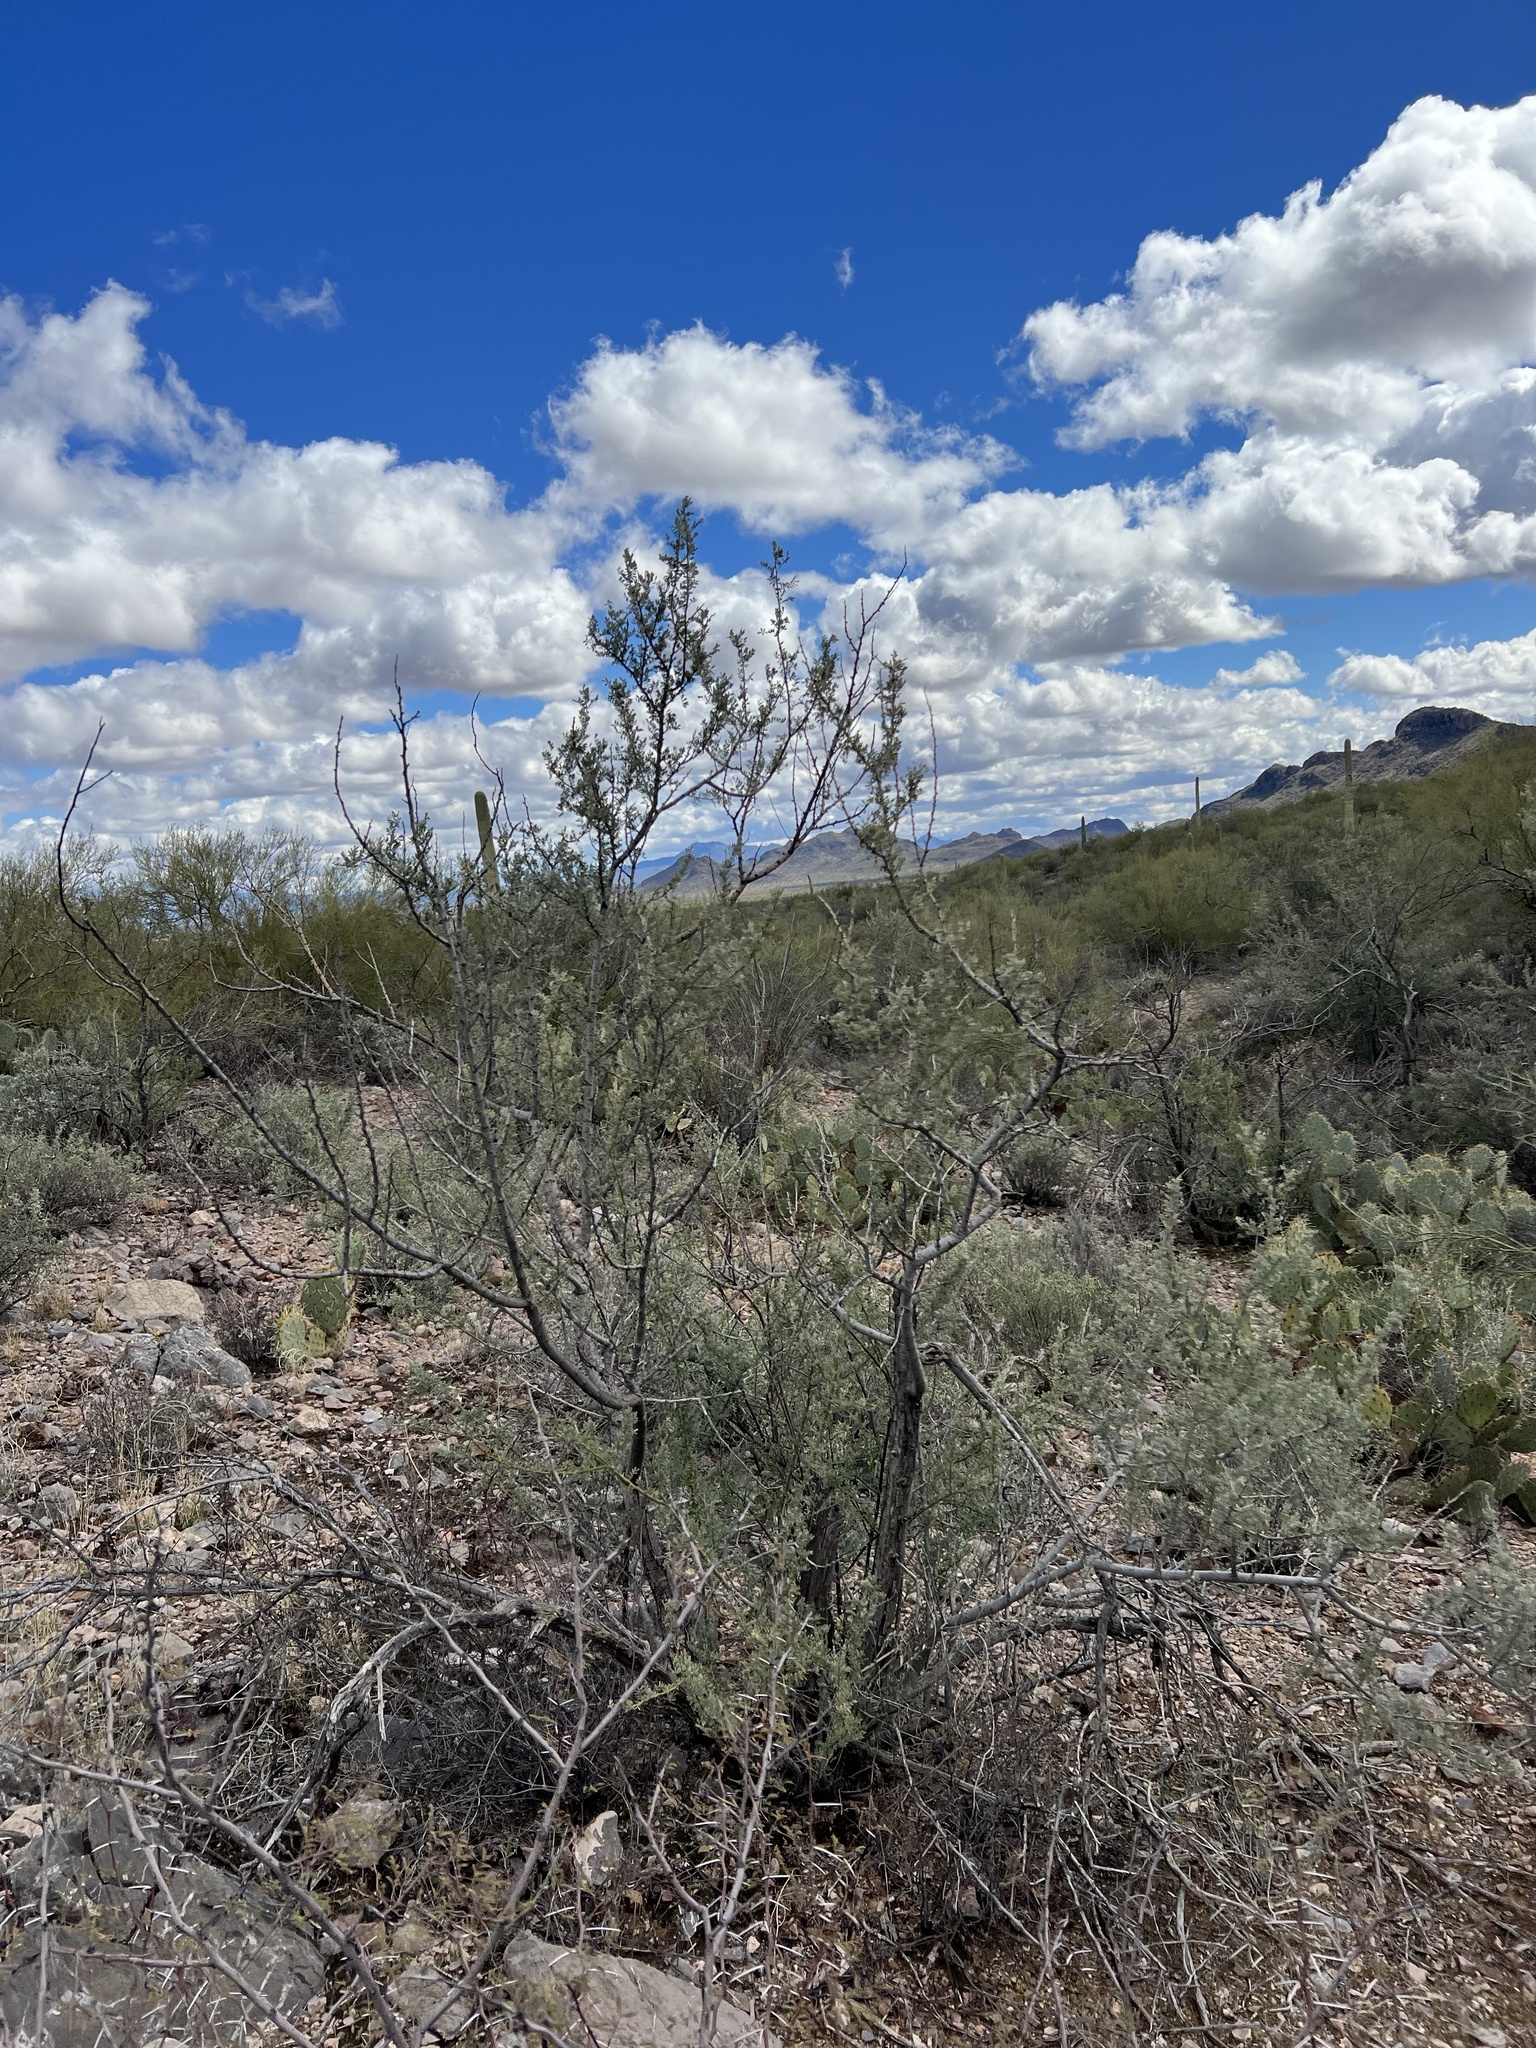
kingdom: Plantae
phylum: Tracheophyta
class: Magnoliopsida
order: Fabales
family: Fabaceae
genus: Olneya
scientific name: Olneya tesota
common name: Desert ironwood
